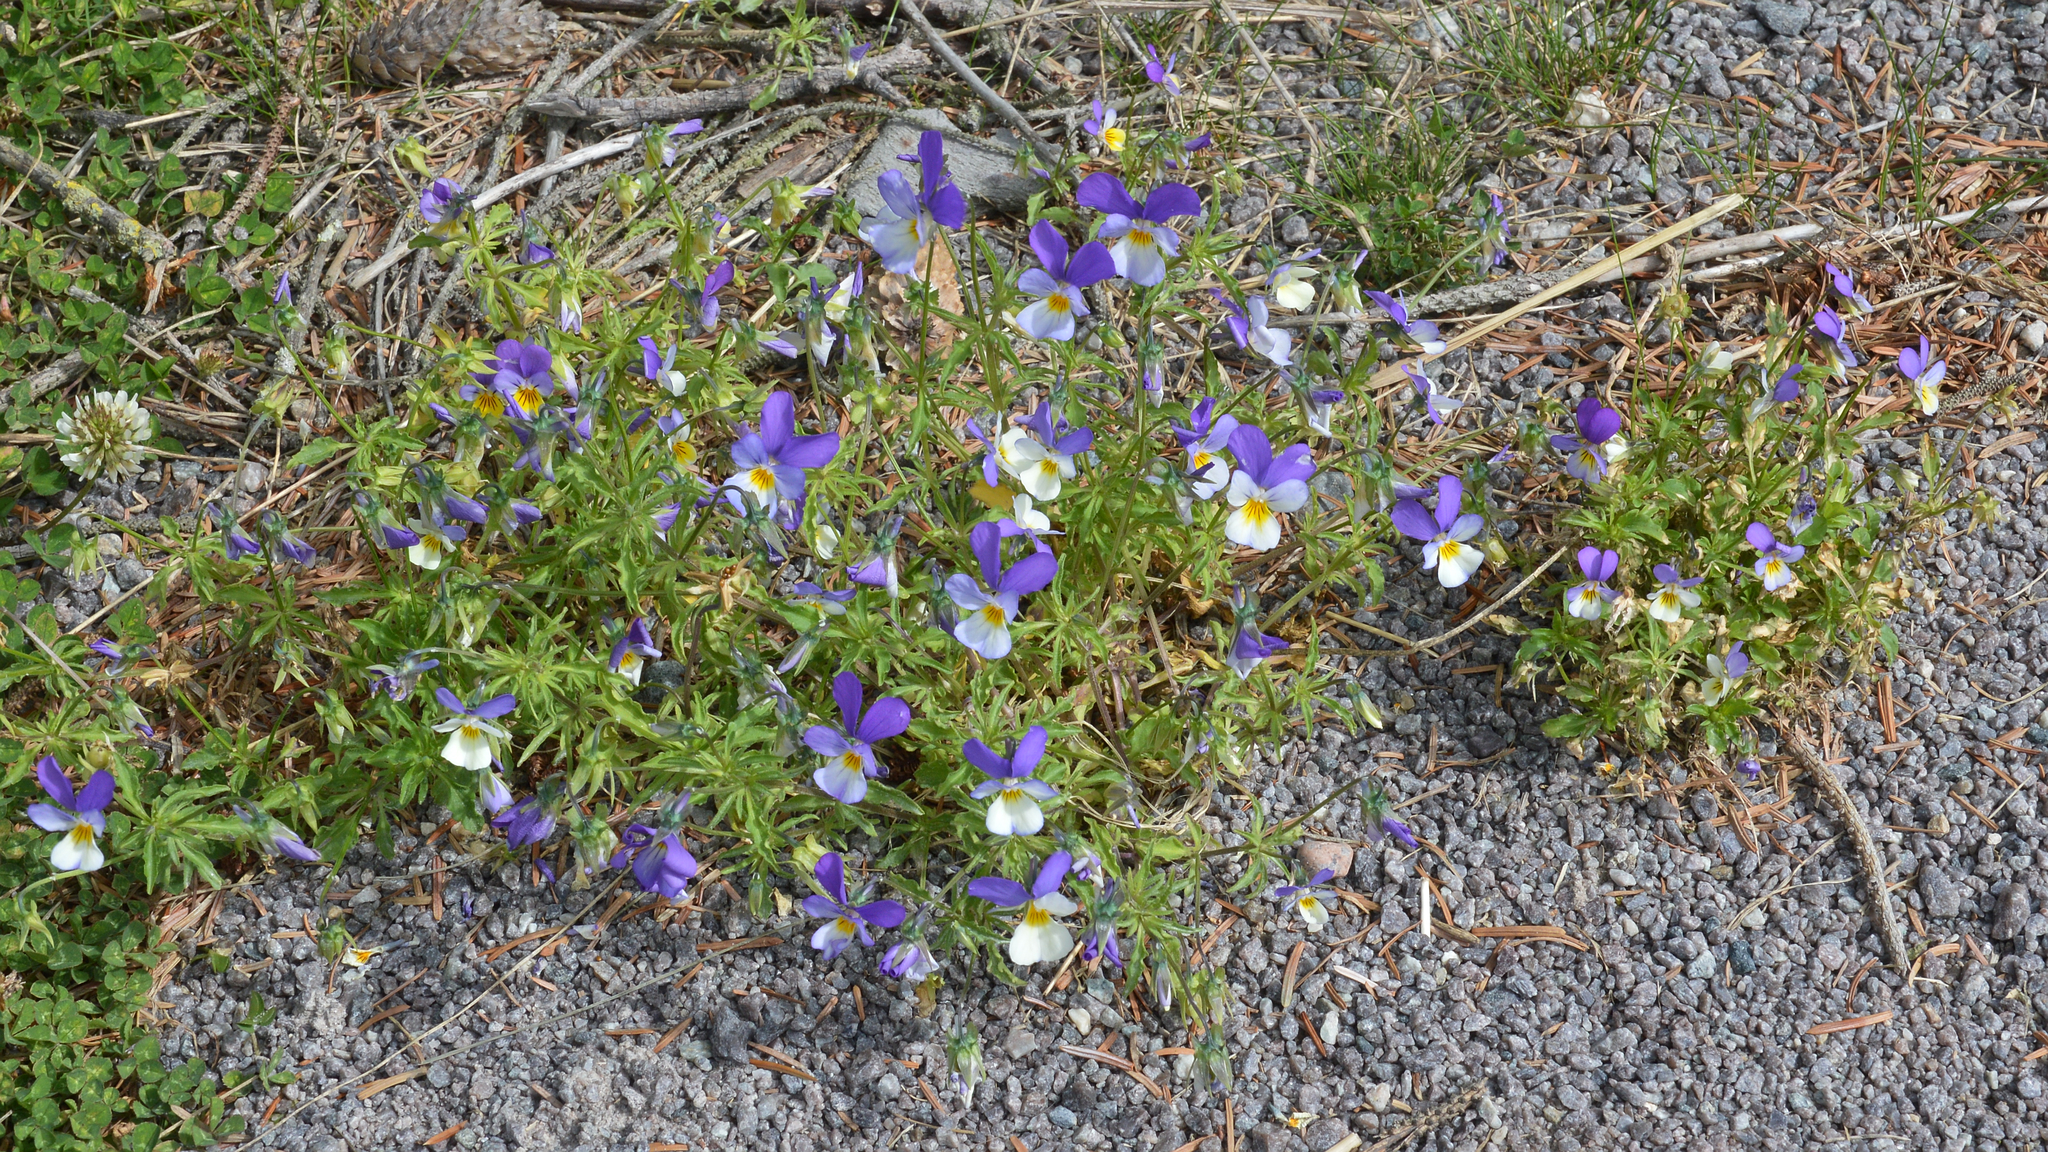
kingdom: Plantae
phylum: Tracheophyta
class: Magnoliopsida
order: Malpighiales
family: Violaceae
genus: Viola
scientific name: Viola tricolor
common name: Pansy
